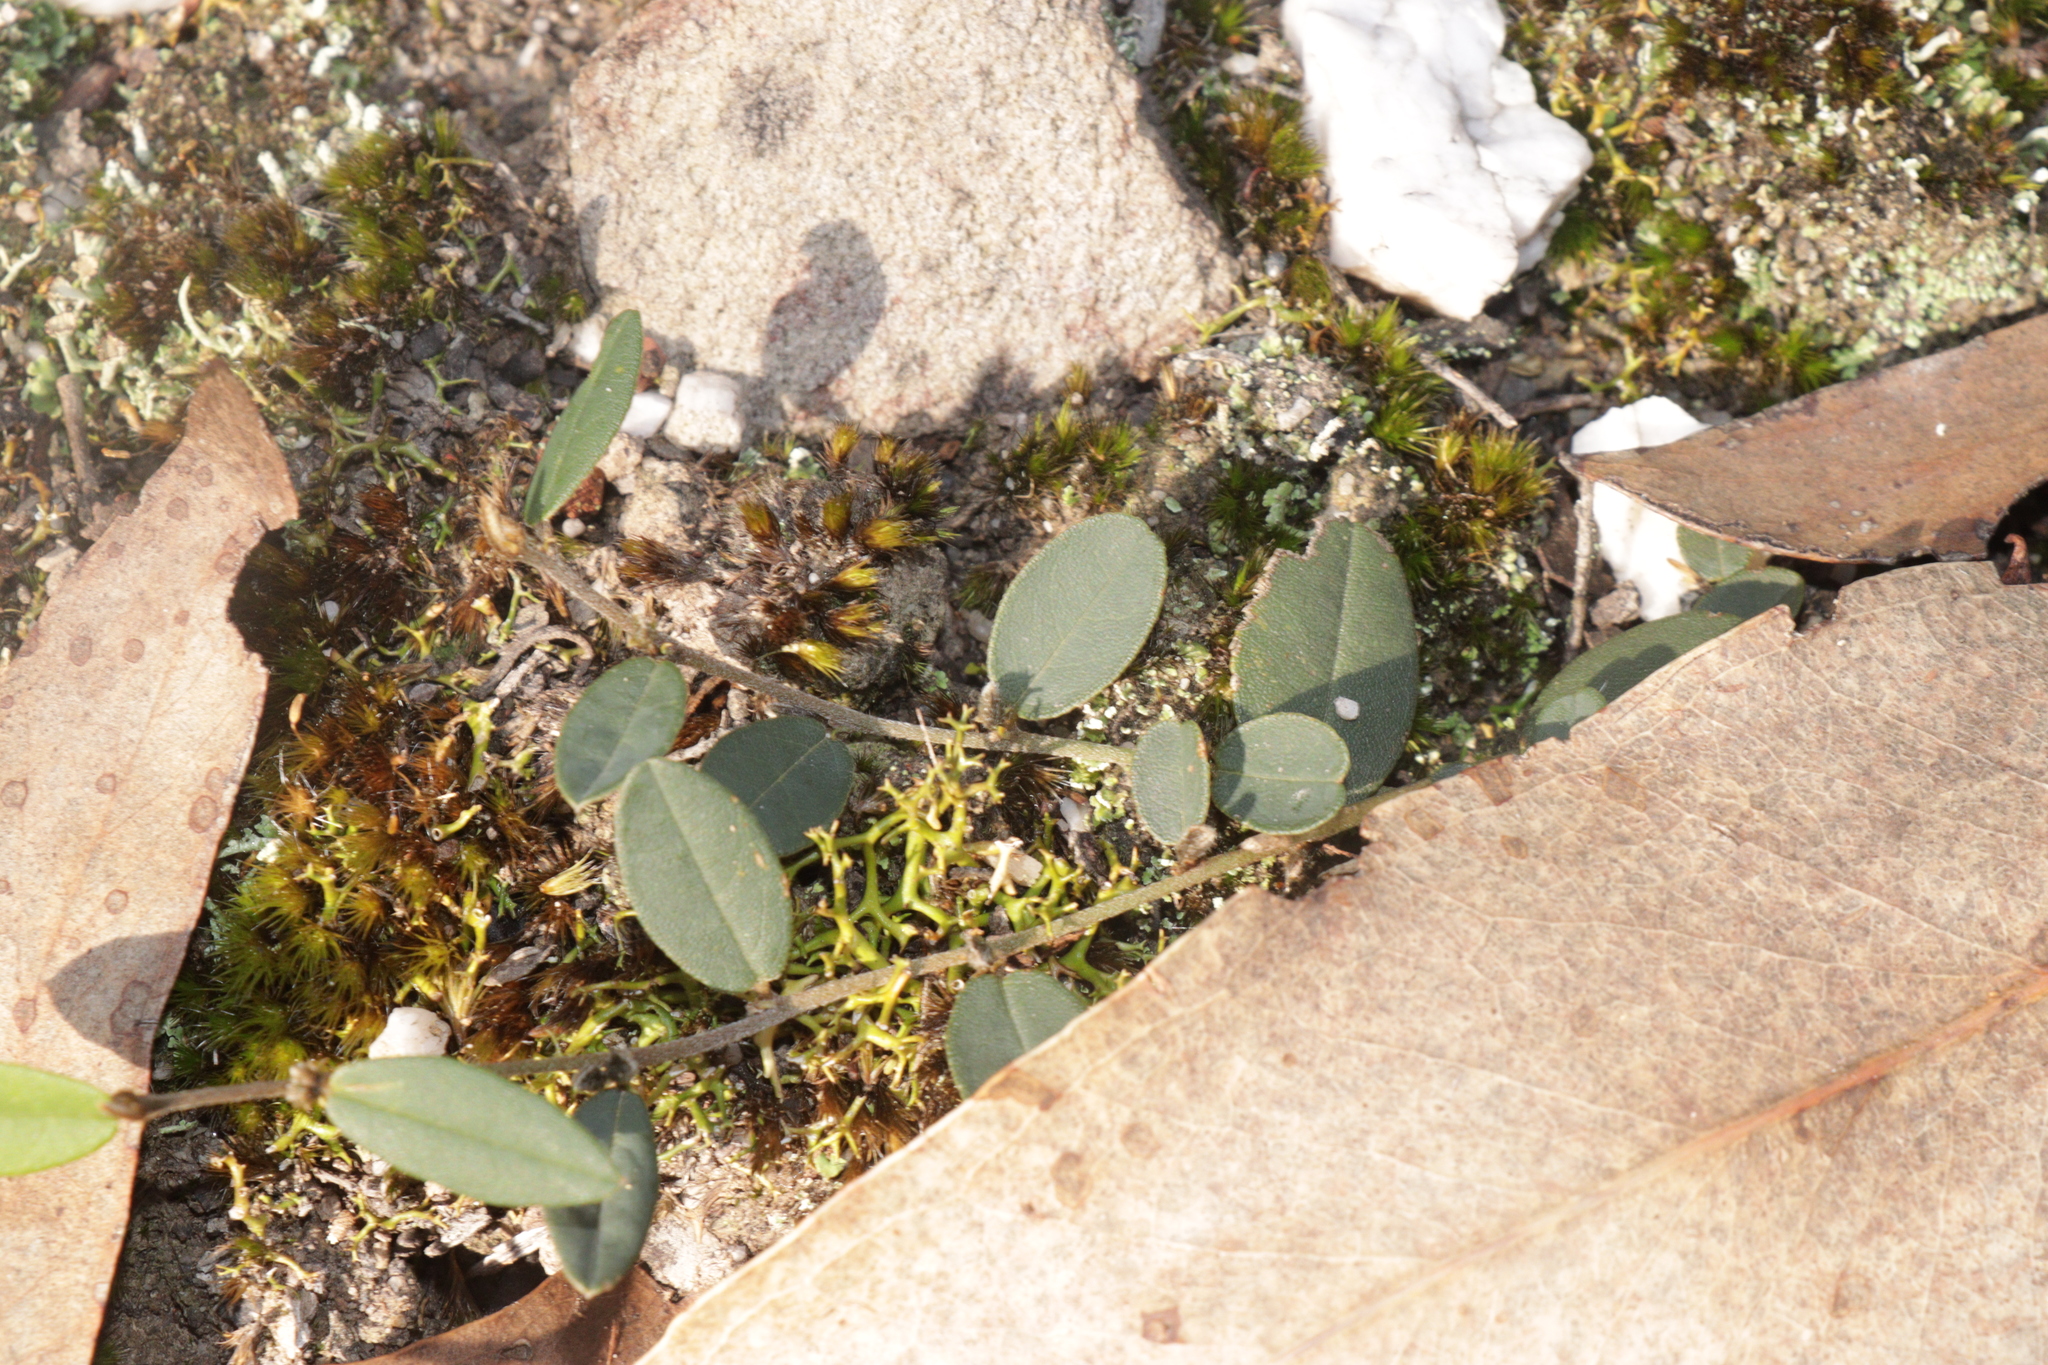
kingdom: Plantae
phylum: Tracheophyta
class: Magnoliopsida
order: Fabales
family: Fabaceae
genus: Hovea
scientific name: Hovea heterophylla
